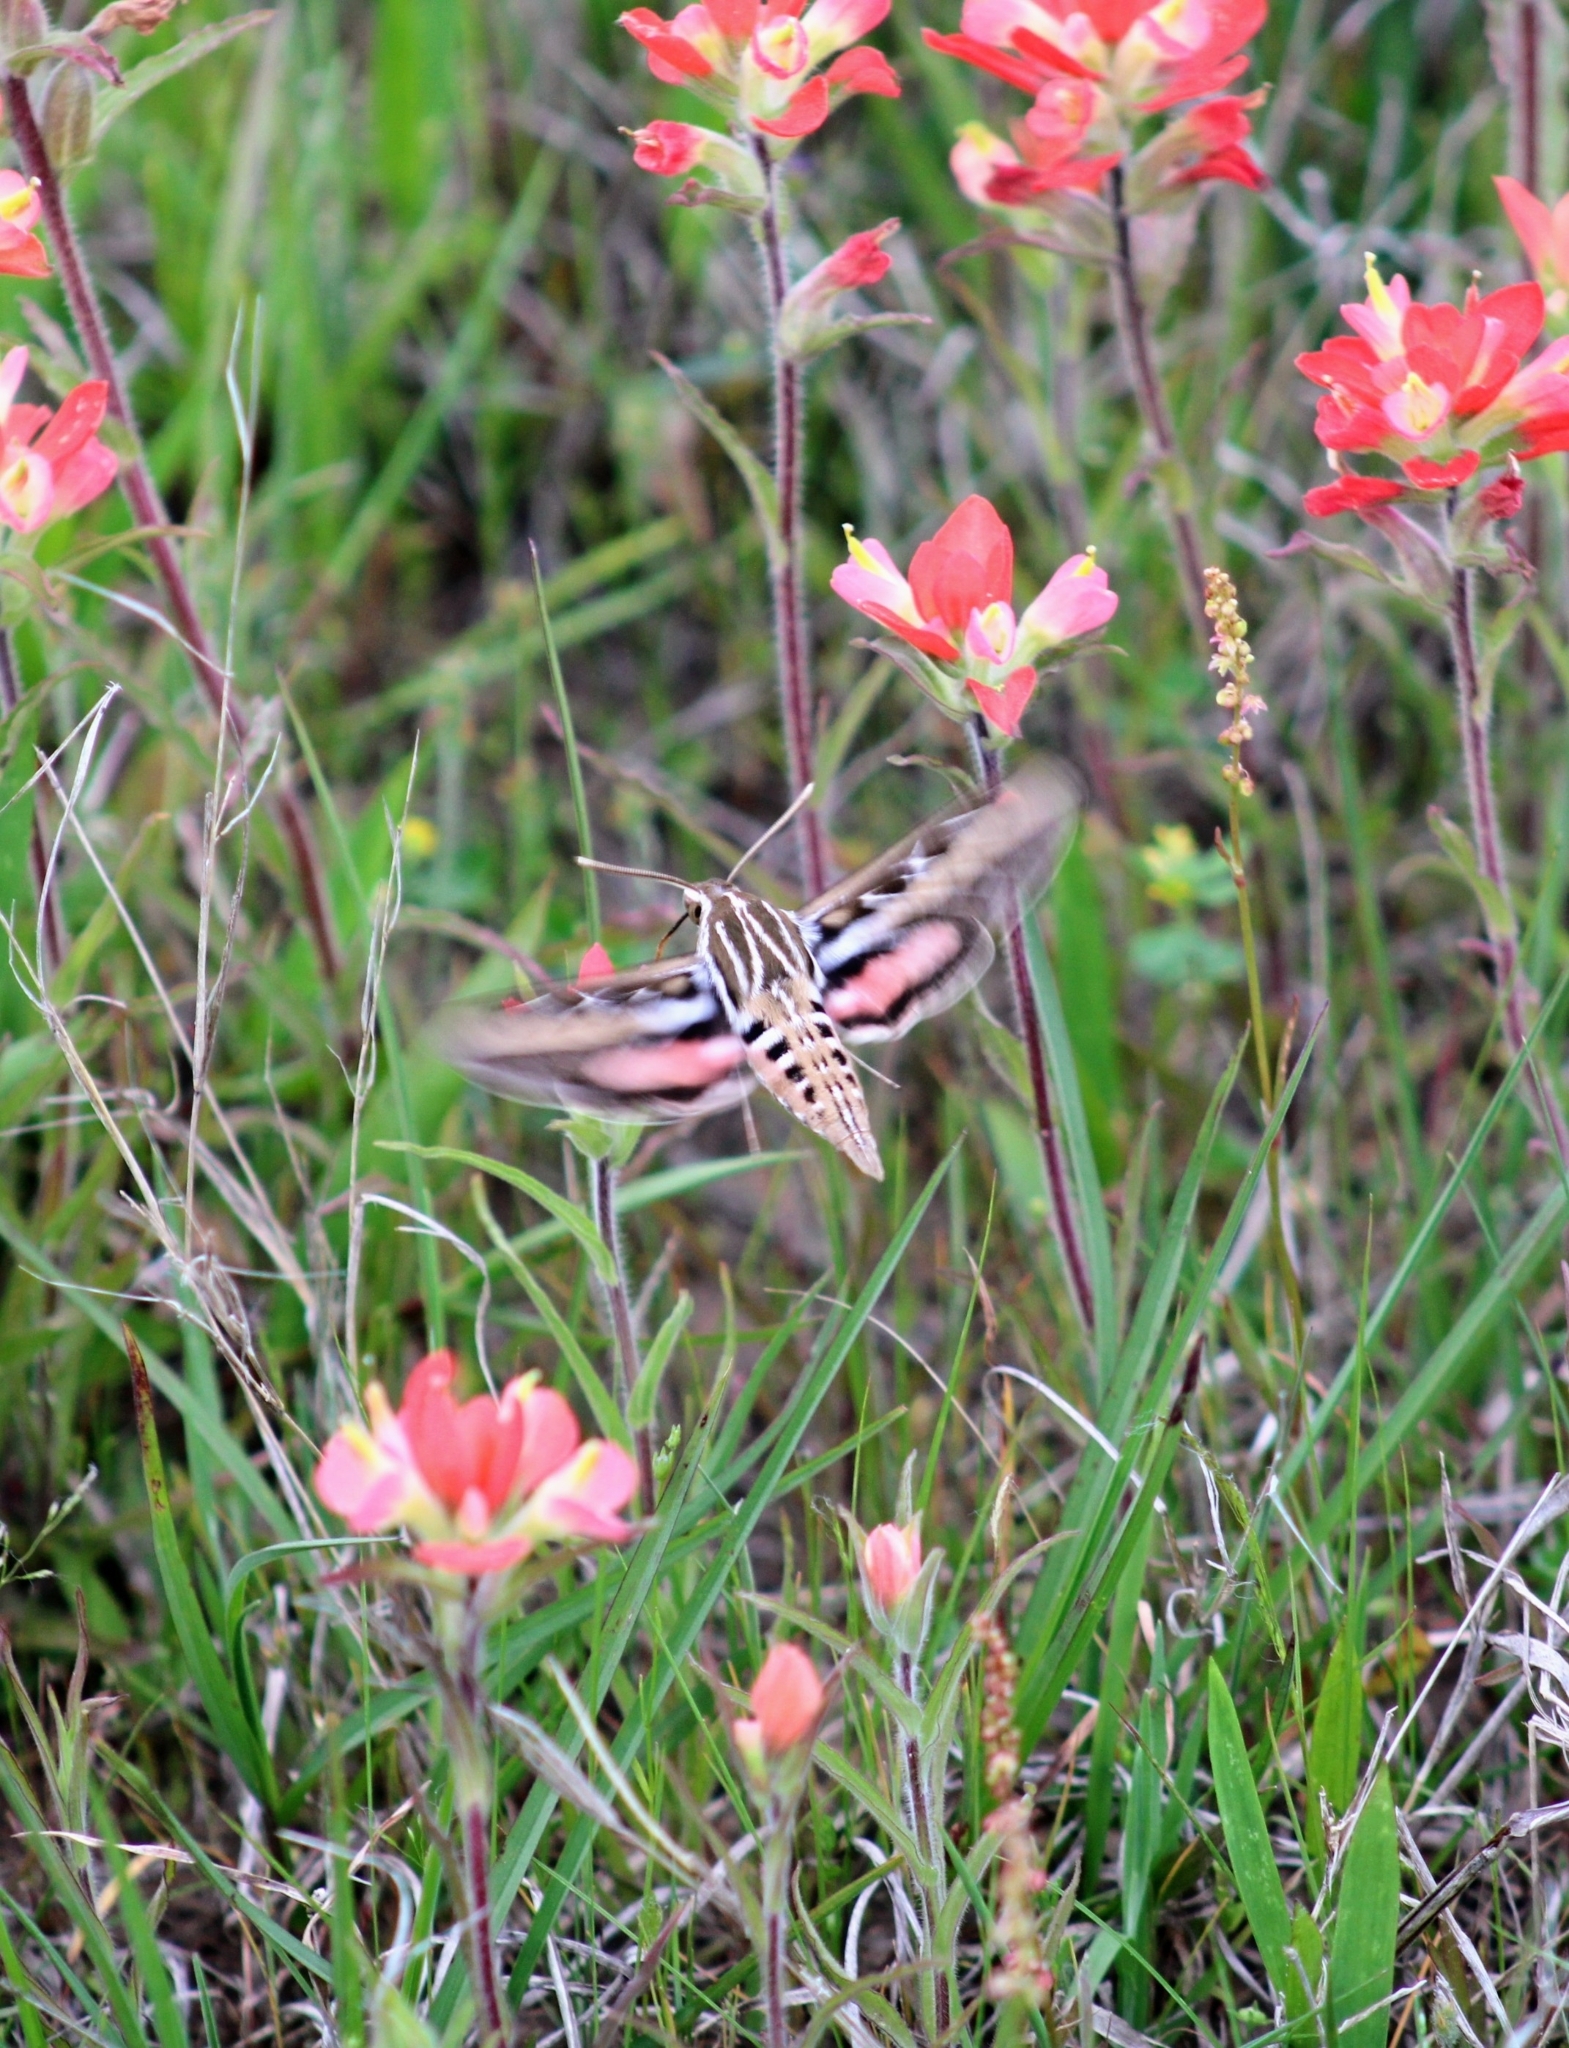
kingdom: Animalia
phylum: Arthropoda
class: Insecta
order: Lepidoptera
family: Sphingidae
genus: Hyles
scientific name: Hyles lineata
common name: White-lined sphinx
